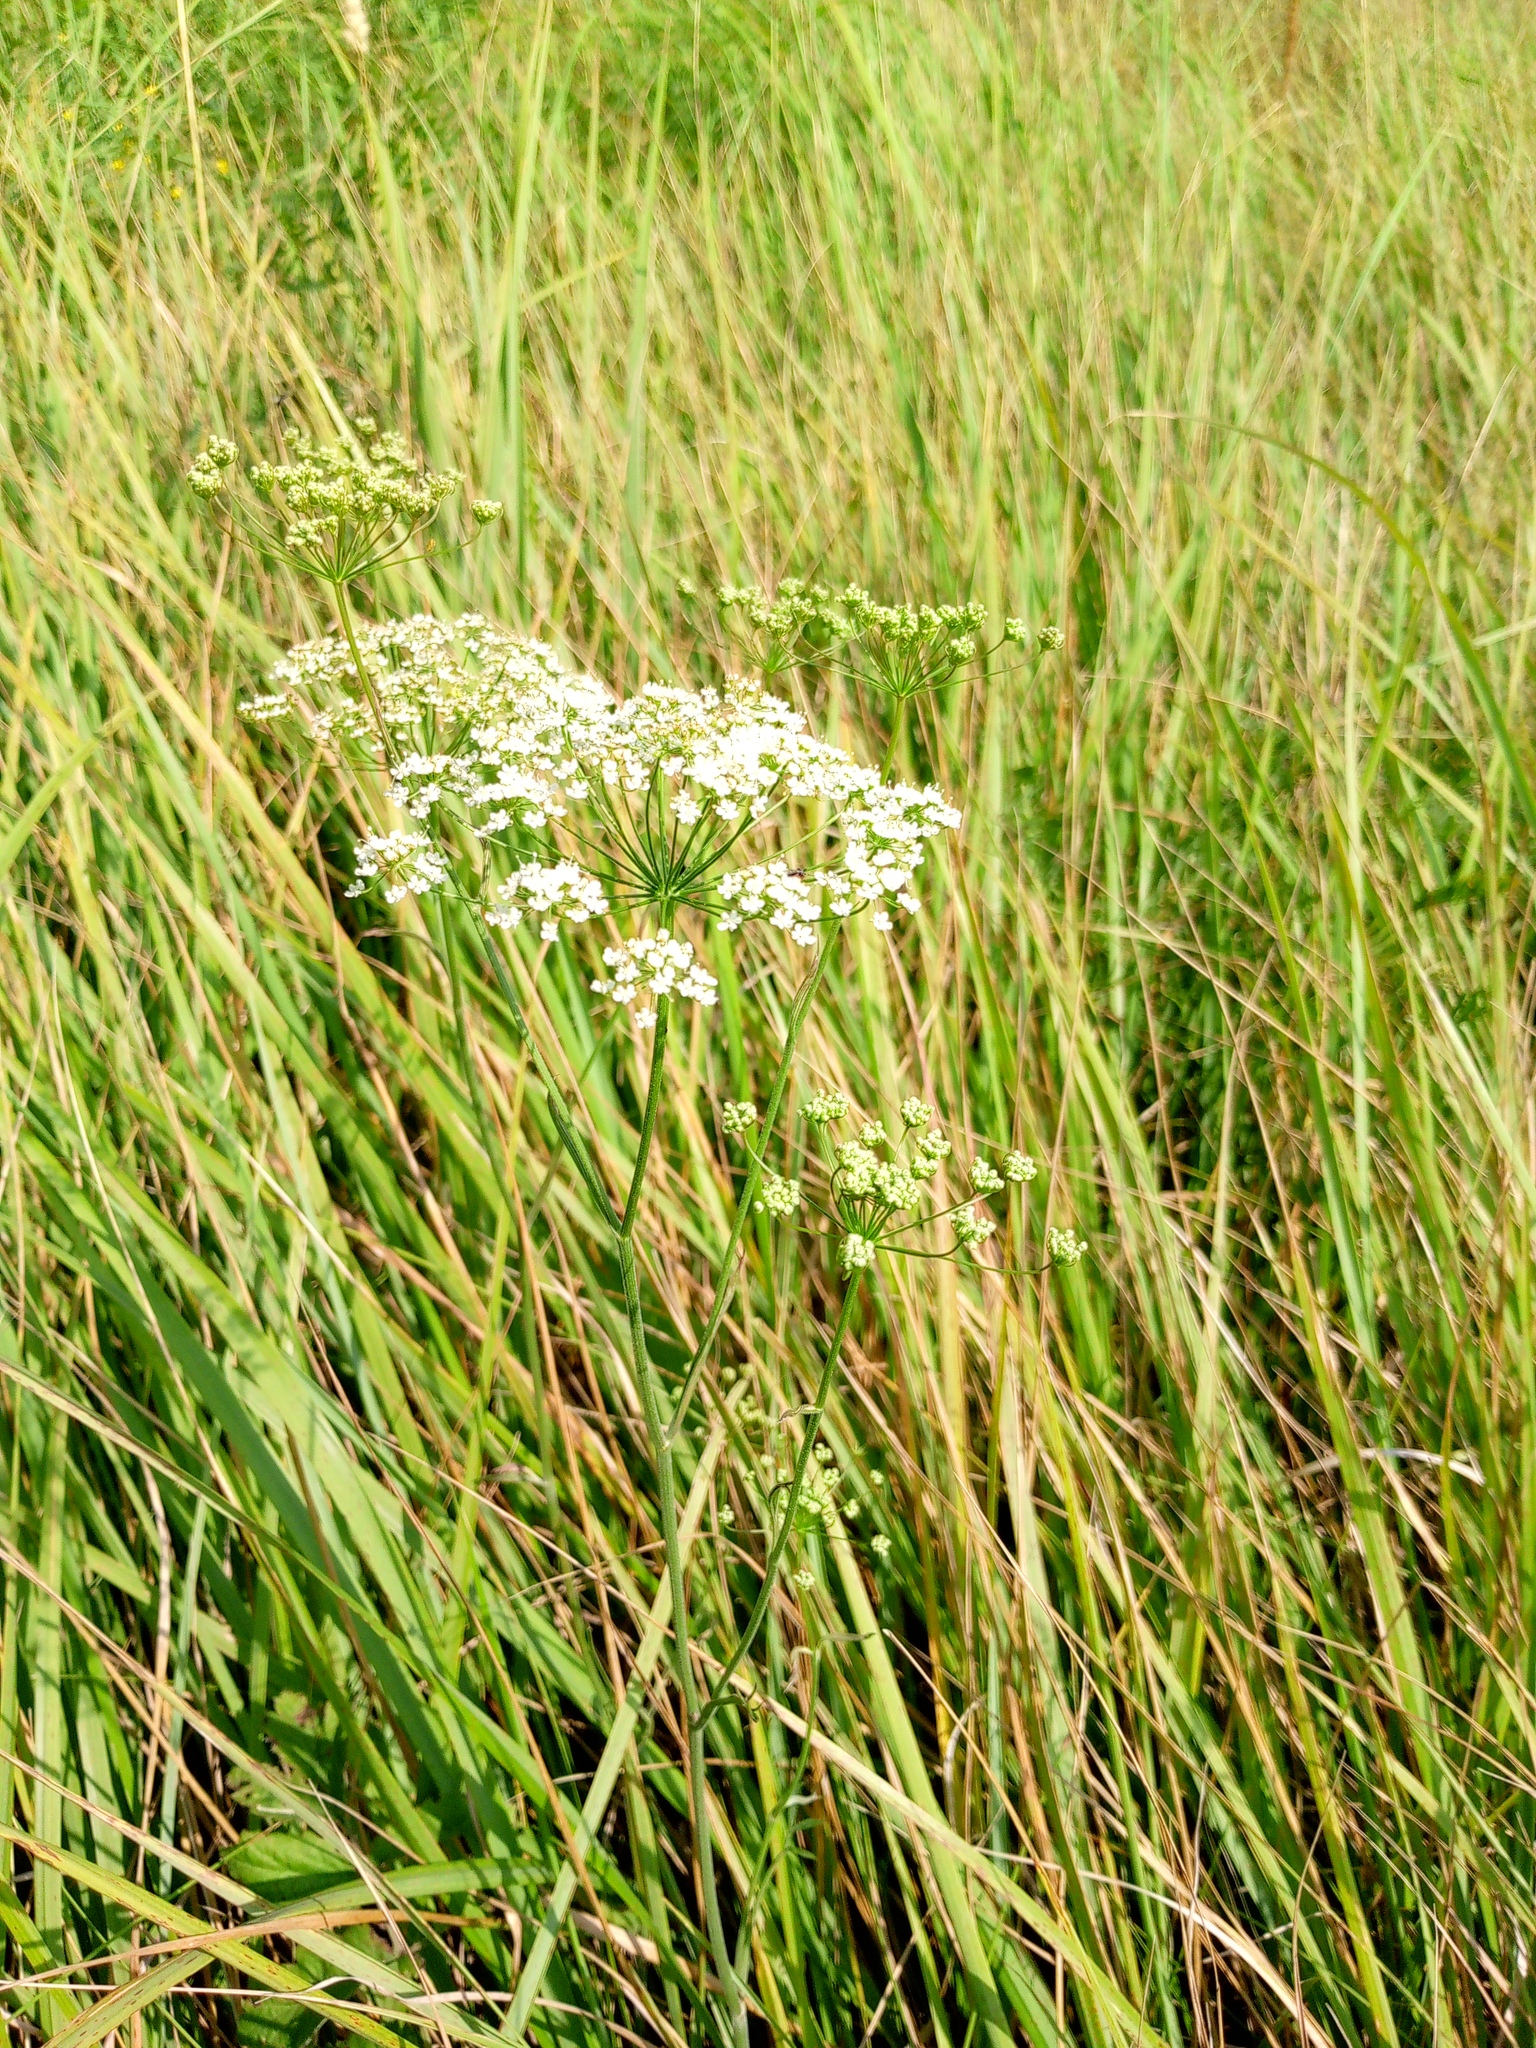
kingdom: Plantae
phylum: Tracheophyta
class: Magnoliopsida
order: Apiales
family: Apiaceae
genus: Pimpinella
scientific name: Pimpinella saxifraga
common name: Burnet-saxifrage
